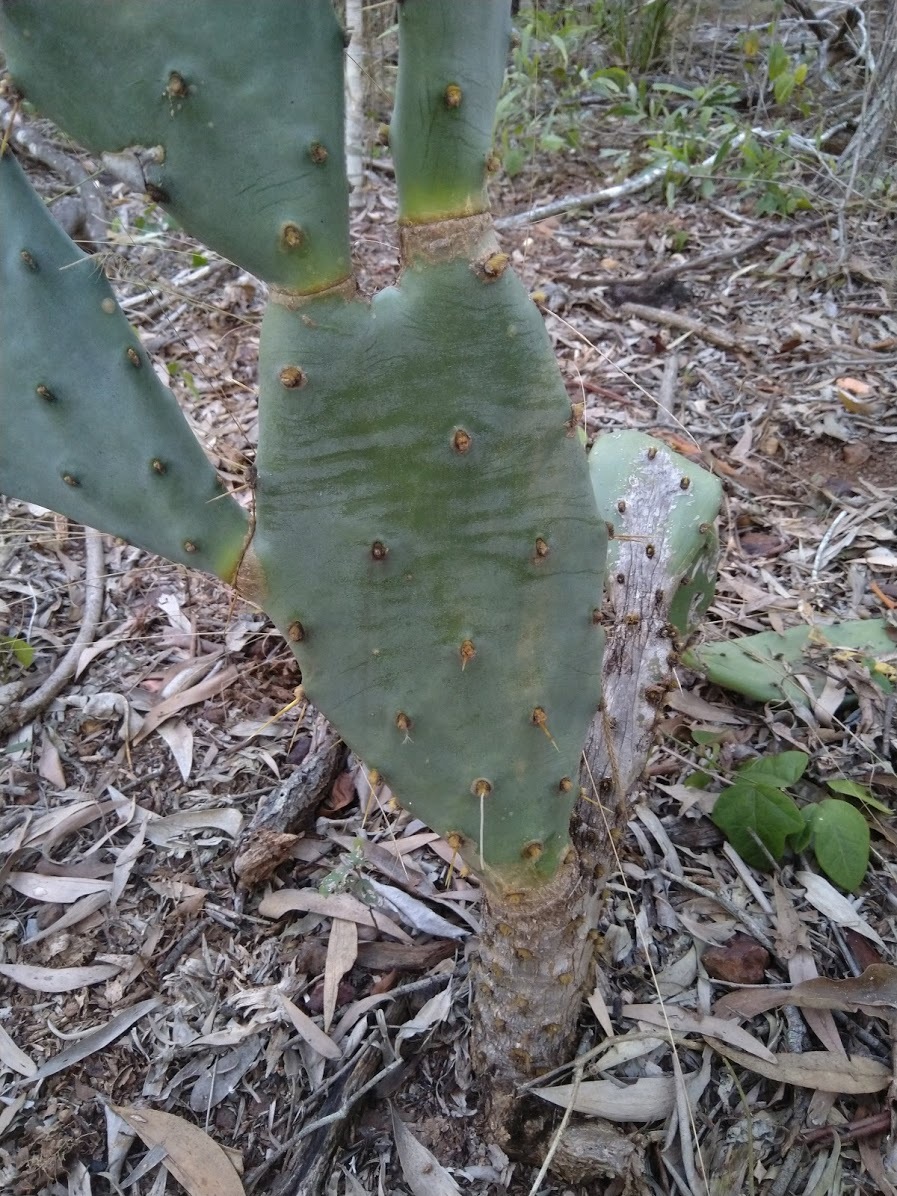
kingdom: Plantae
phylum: Tracheophyta
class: Magnoliopsida
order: Caryophyllales
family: Cactaceae
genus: Opuntia
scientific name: Opuntia stricta
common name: Erect pricklypear
